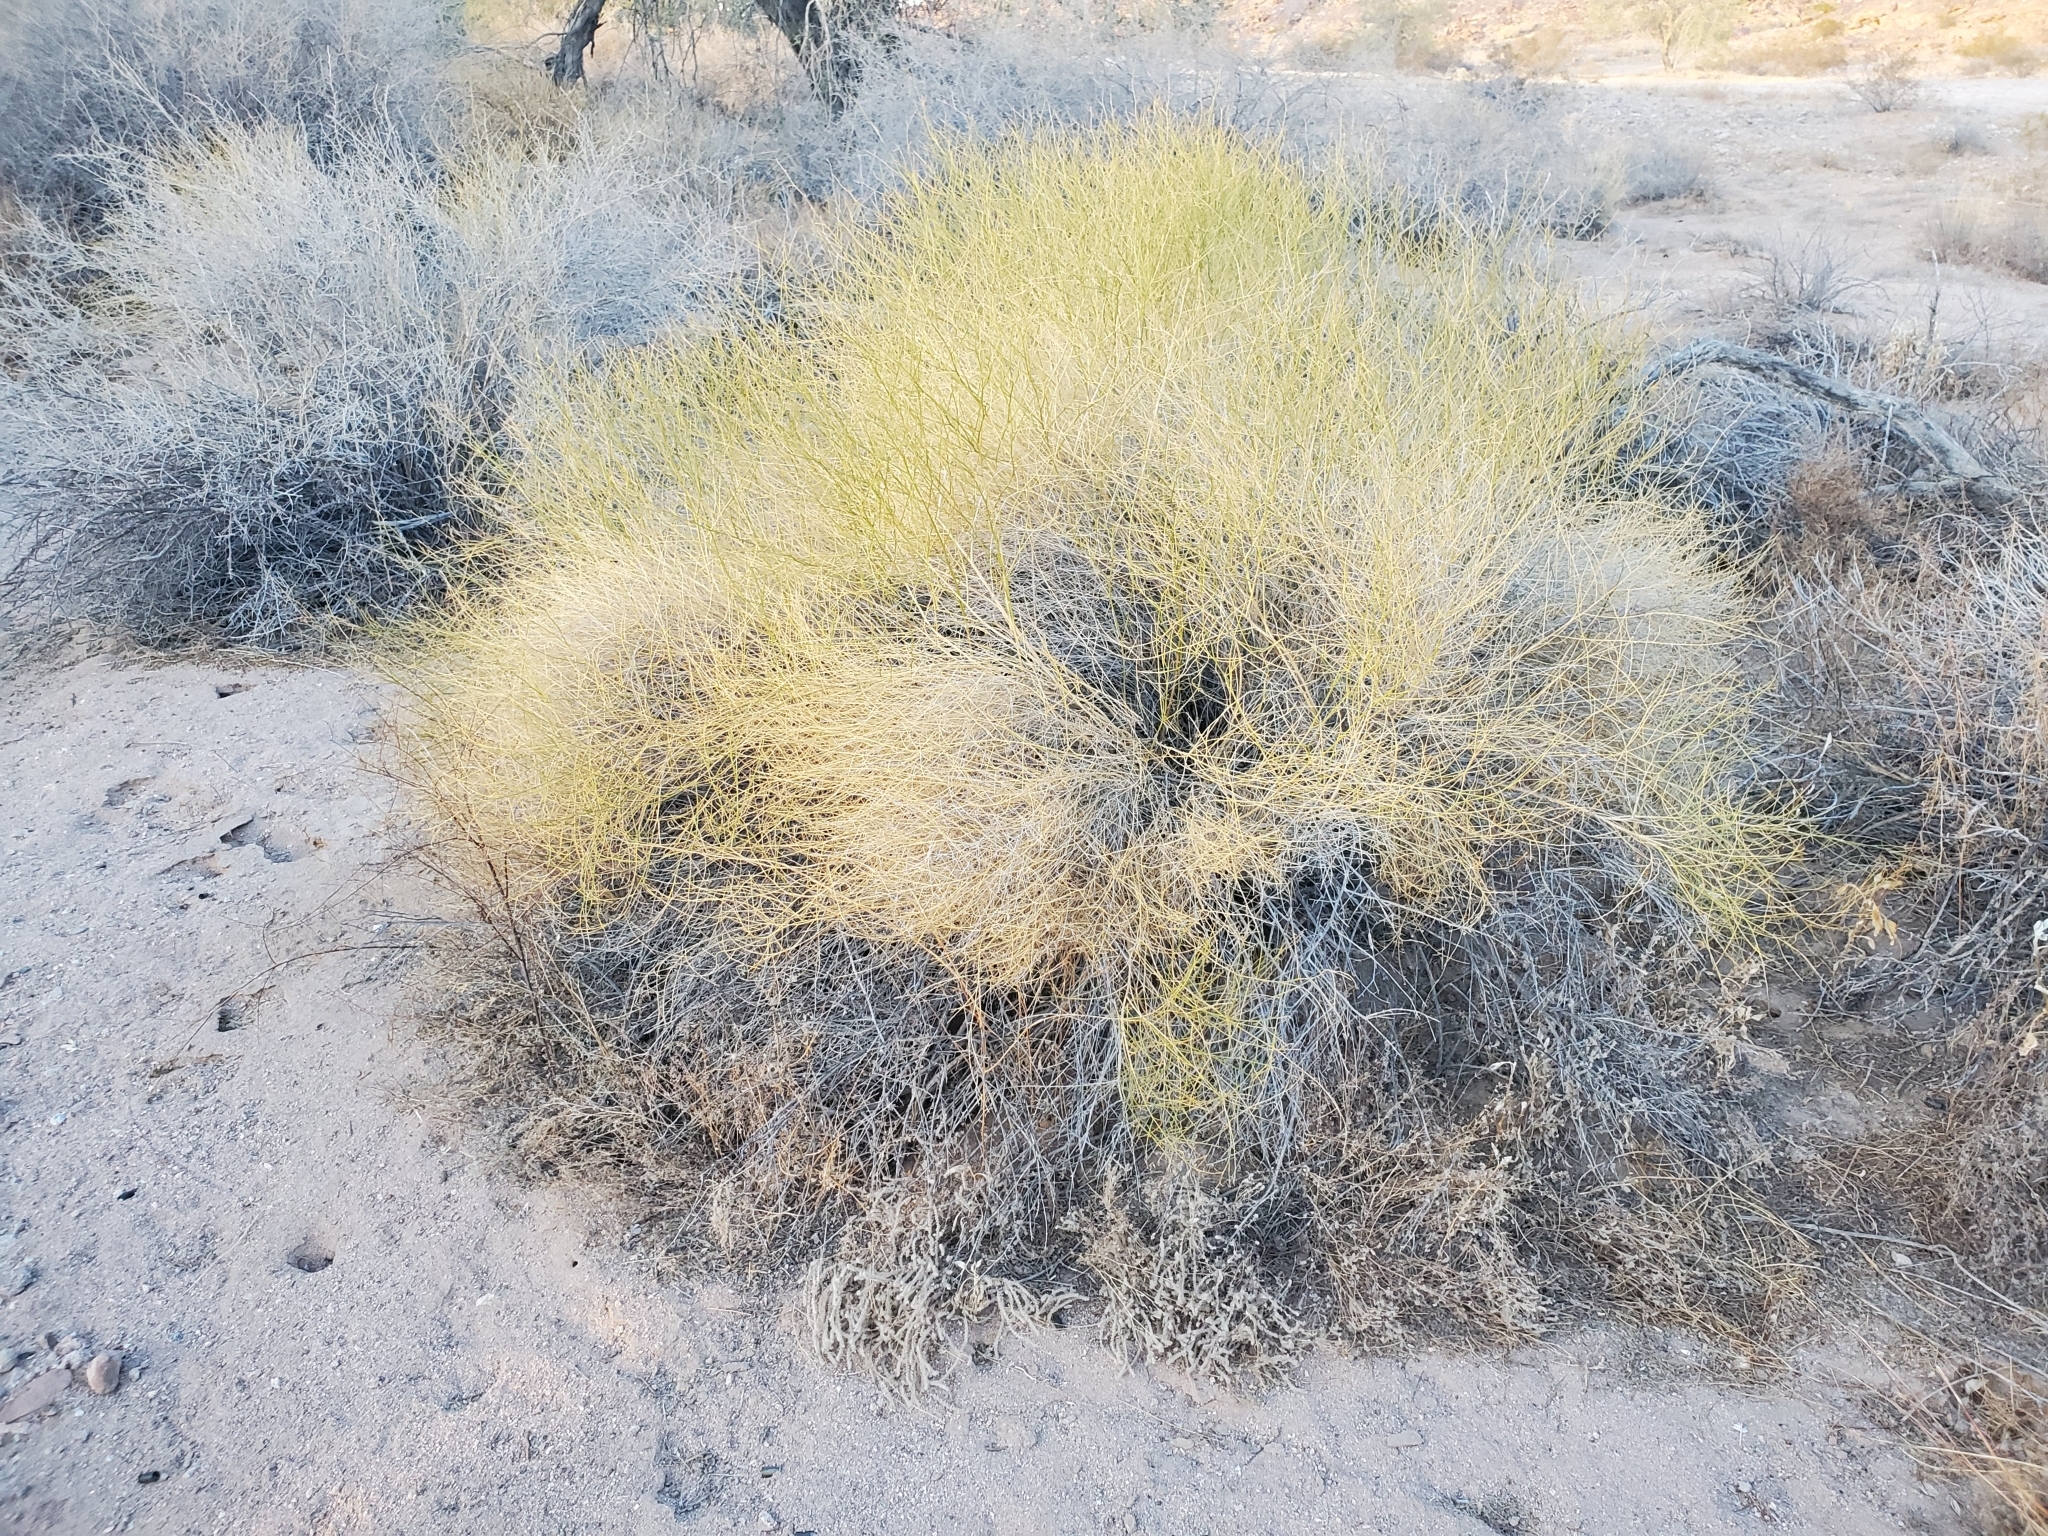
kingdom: Plantae
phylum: Tracheophyta
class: Magnoliopsida
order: Asterales
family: Asteraceae
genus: Ambrosia
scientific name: Ambrosia salsola
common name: Burrobrush
